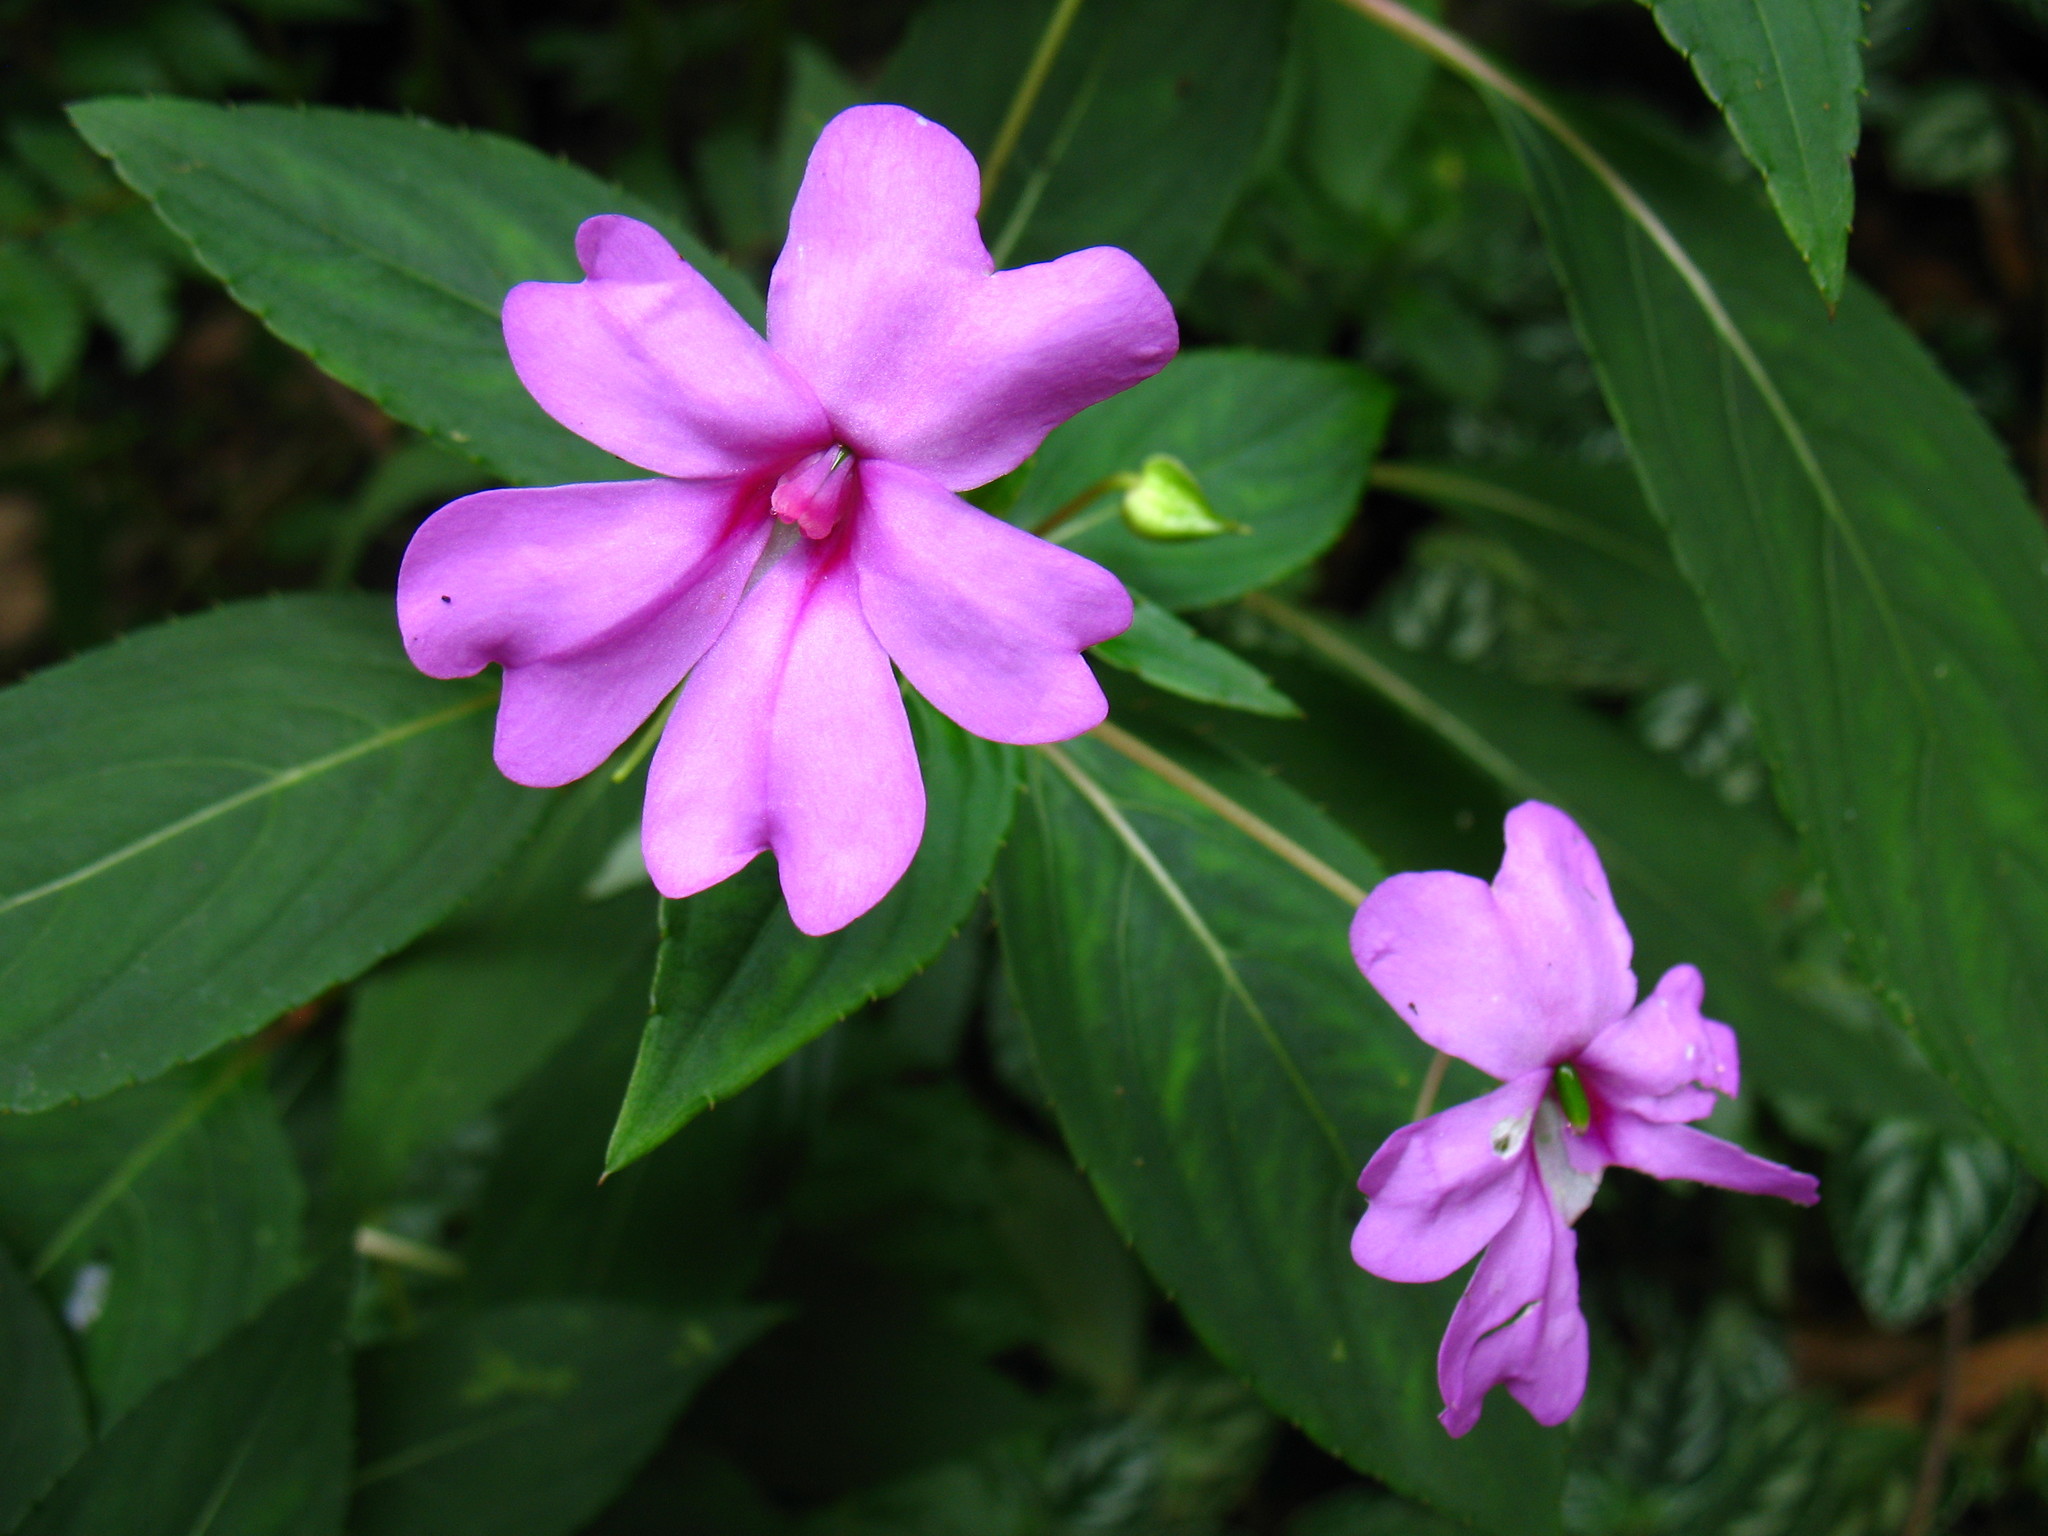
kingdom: Plantae
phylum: Tracheophyta
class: Magnoliopsida
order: Ericales
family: Balsaminaceae
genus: Impatiens
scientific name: Impatiens hawkeri
